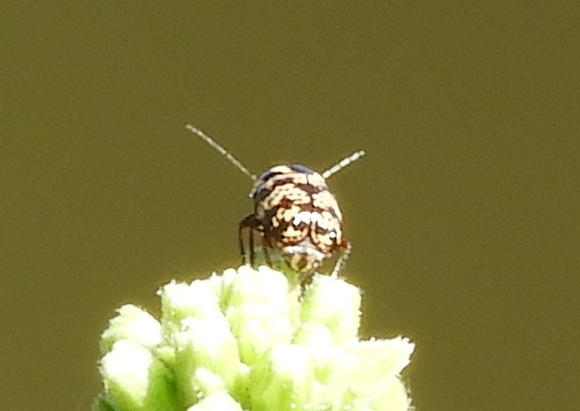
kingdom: Animalia
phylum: Arthropoda
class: Insecta
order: Coleoptera
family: Chrysomelidae
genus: Cryptocephalus
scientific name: Cryptocephalus
